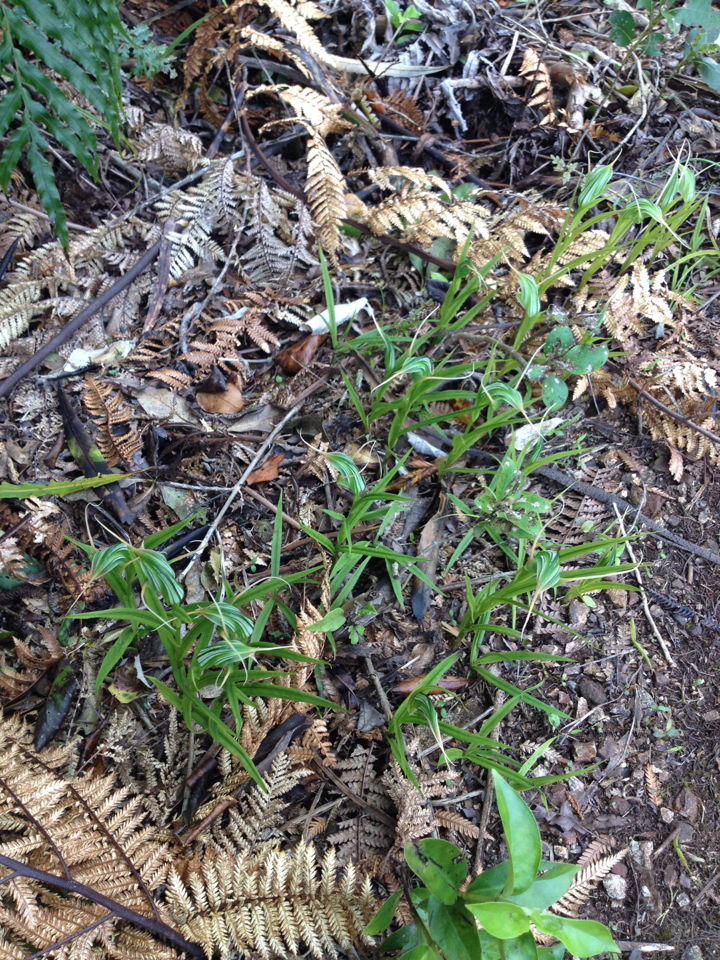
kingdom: Plantae
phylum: Tracheophyta
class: Liliopsida
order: Asparagales
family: Orchidaceae
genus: Pterostylis
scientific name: Pterostylis banksii
